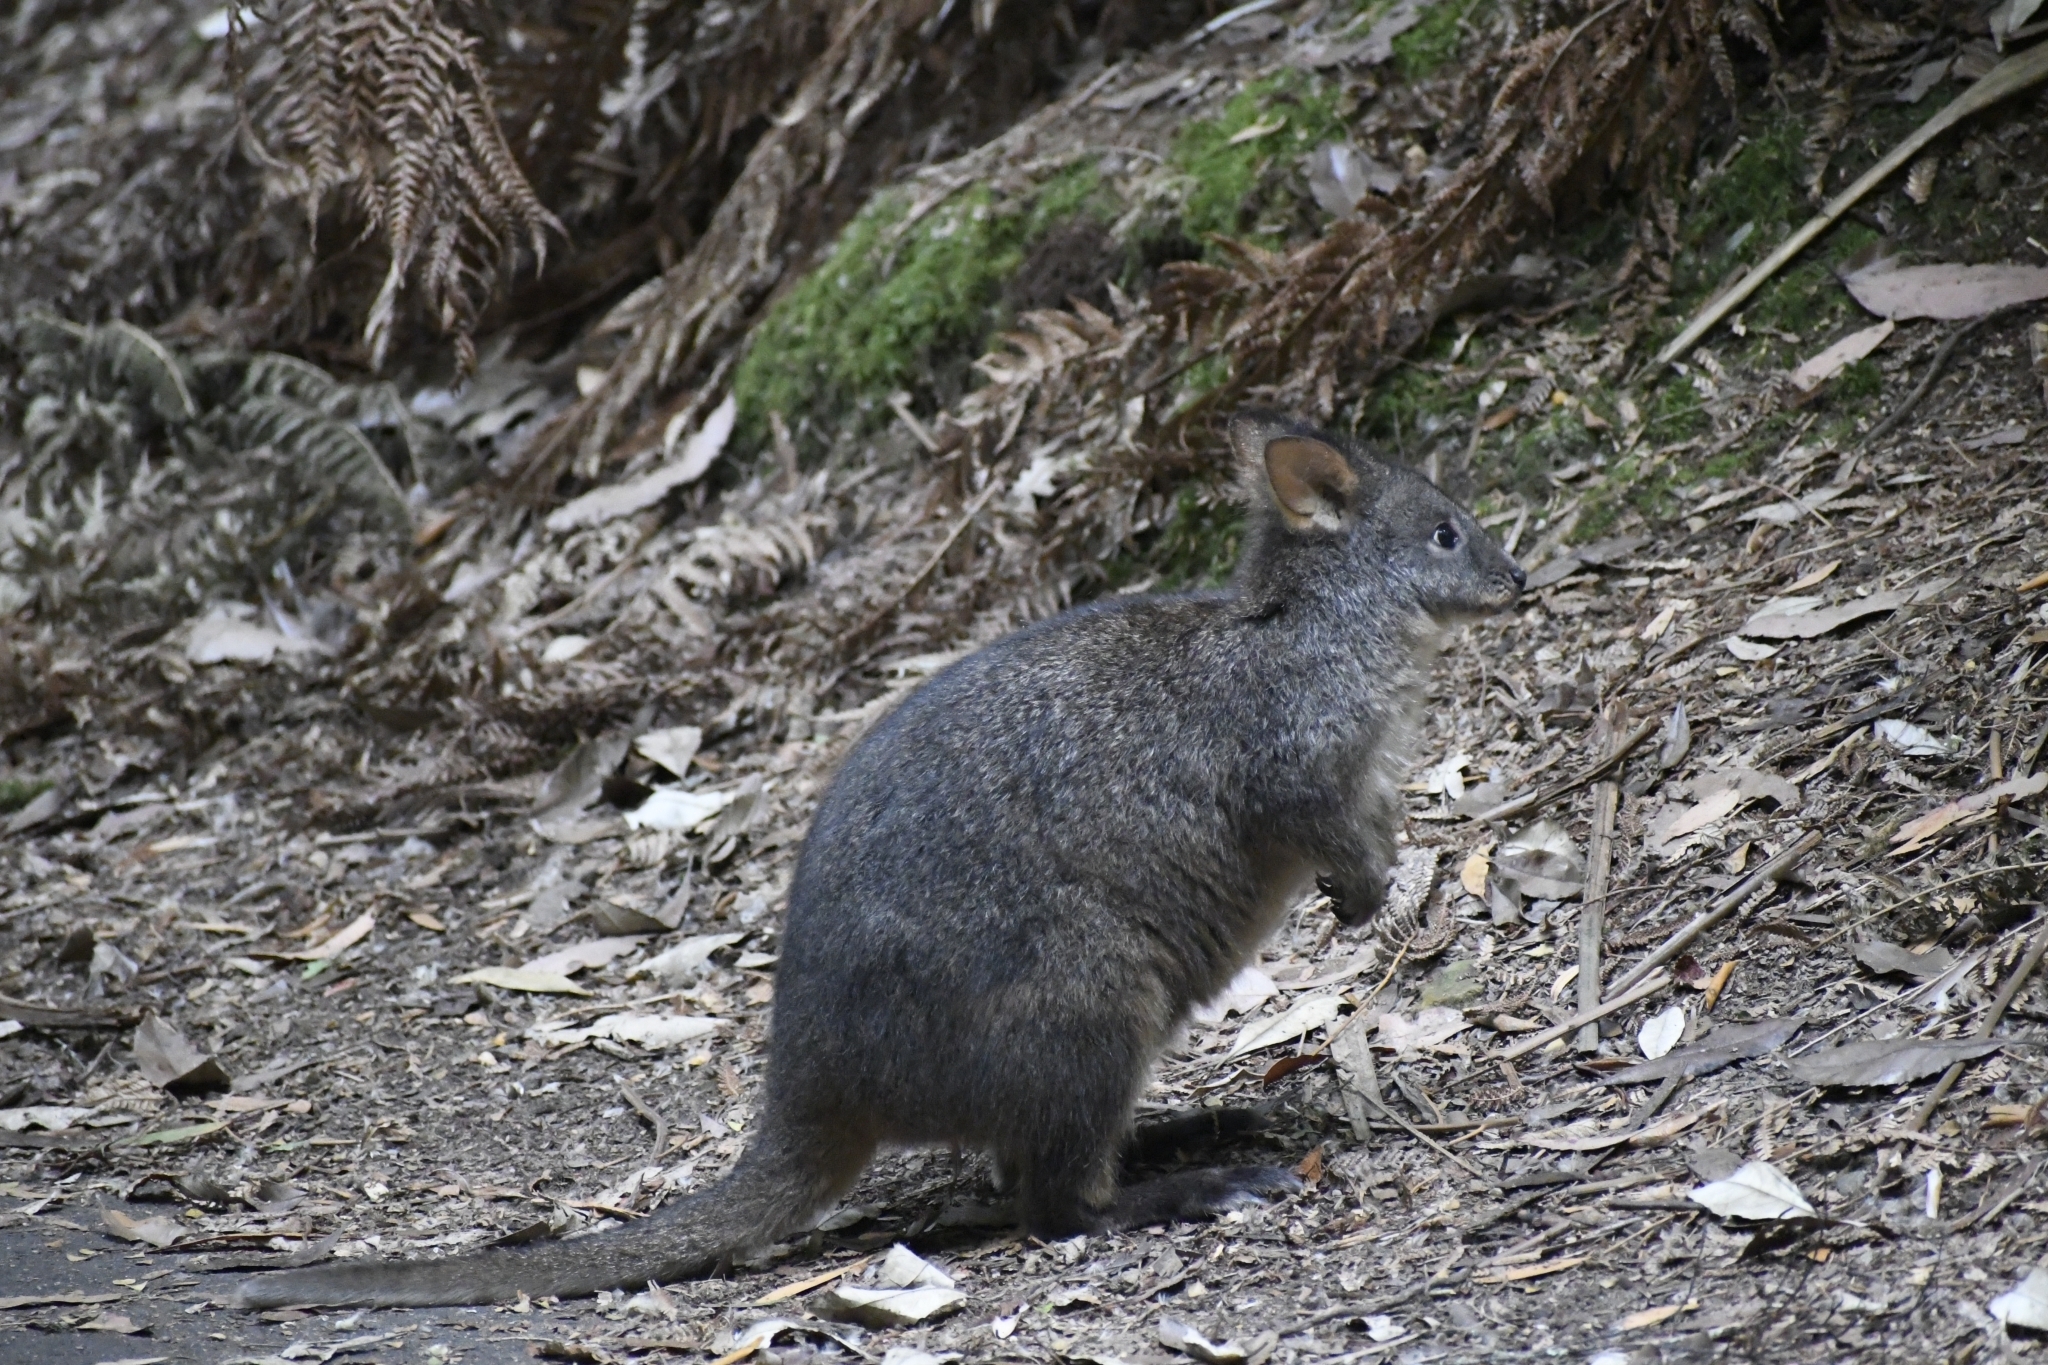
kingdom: Animalia
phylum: Chordata
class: Mammalia
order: Diprotodontia
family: Macropodidae
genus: Thylogale
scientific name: Thylogale billardierii
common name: Tasmanian pademelon
